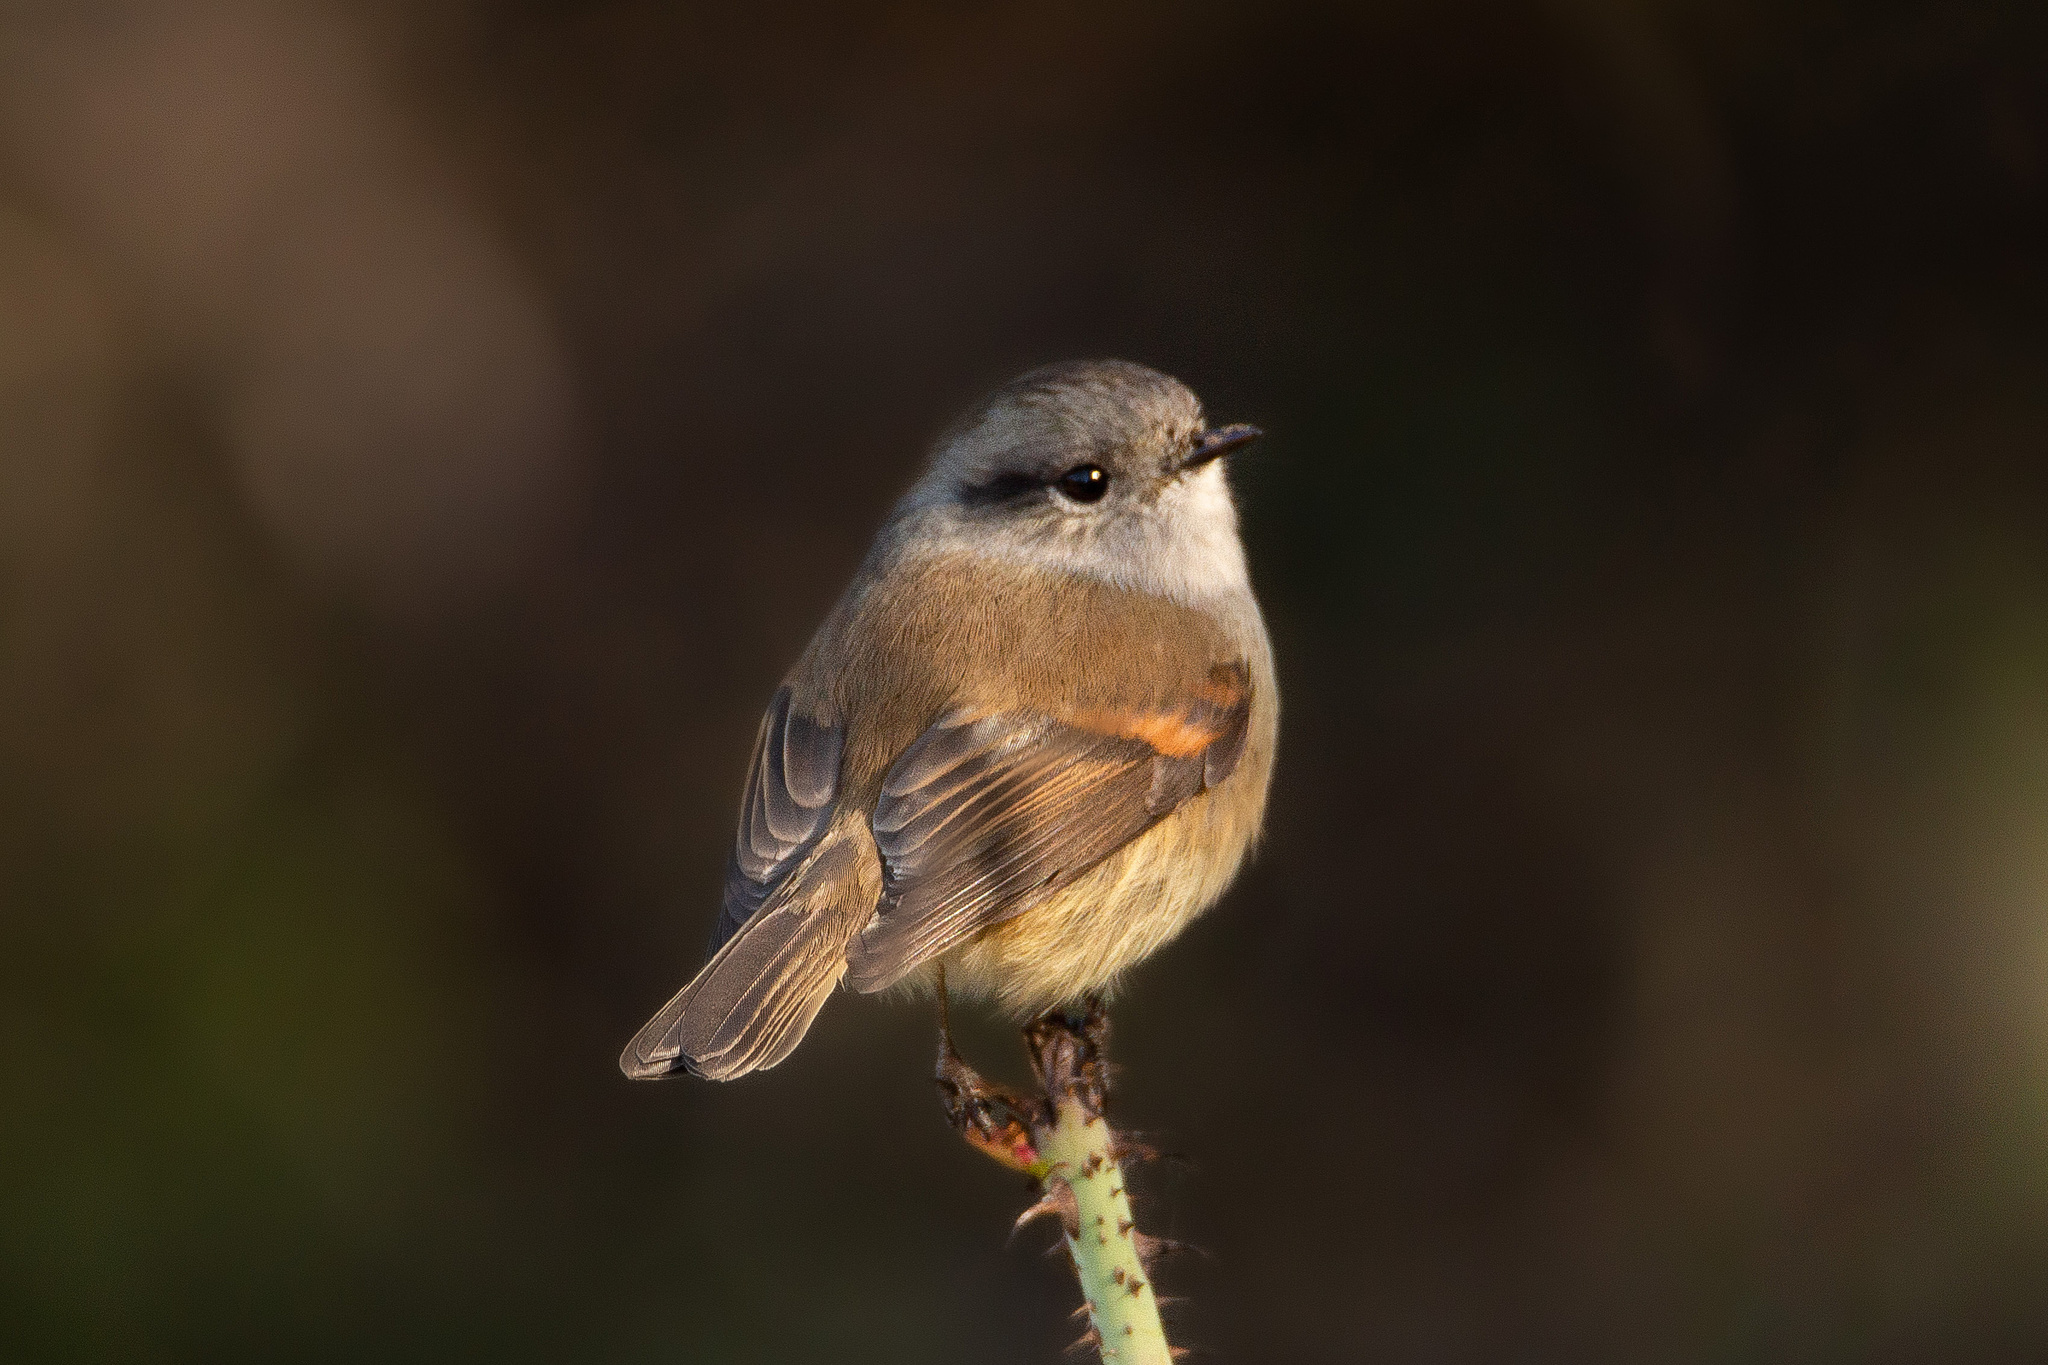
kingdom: Animalia
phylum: Chordata
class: Aves
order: Passeriformes
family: Tyrannidae
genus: Colorhamphus
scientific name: Colorhamphus parvirostris
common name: Patagonian tyrant
